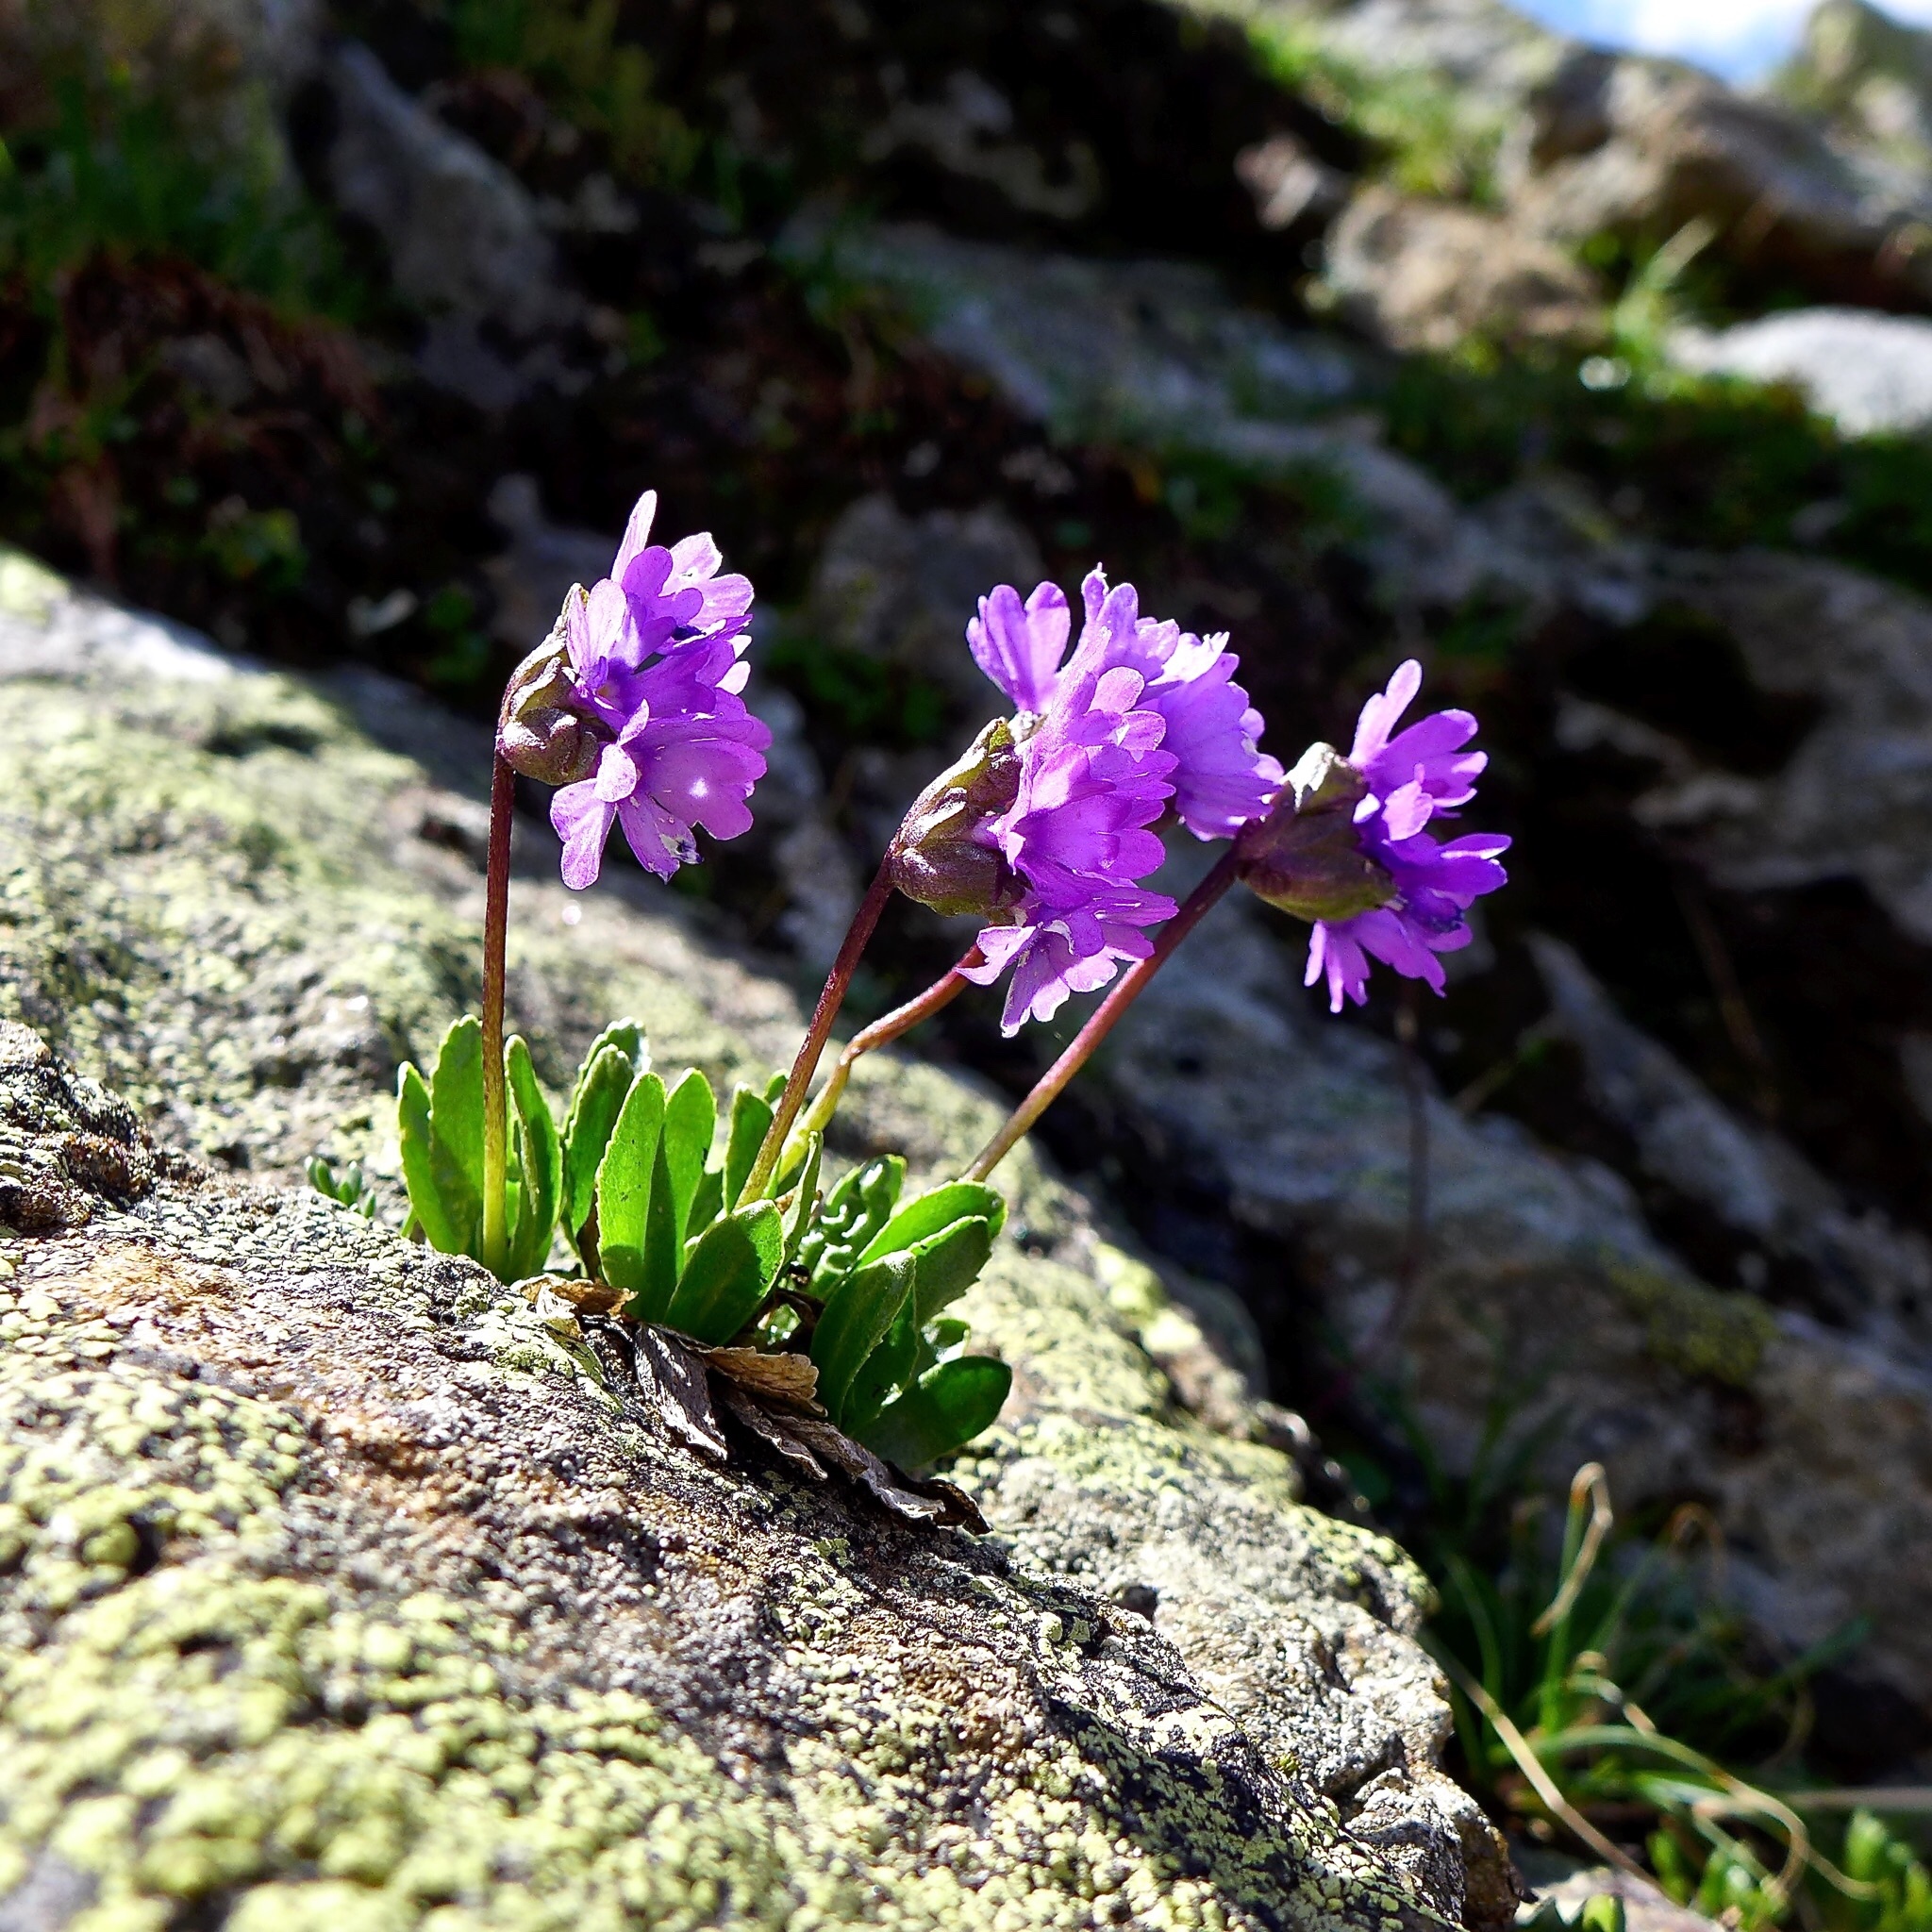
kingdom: Plantae
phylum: Tracheophyta
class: Magnoliopsida
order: Ericales
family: Primulaceae
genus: Primula
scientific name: Primula glutinosa
